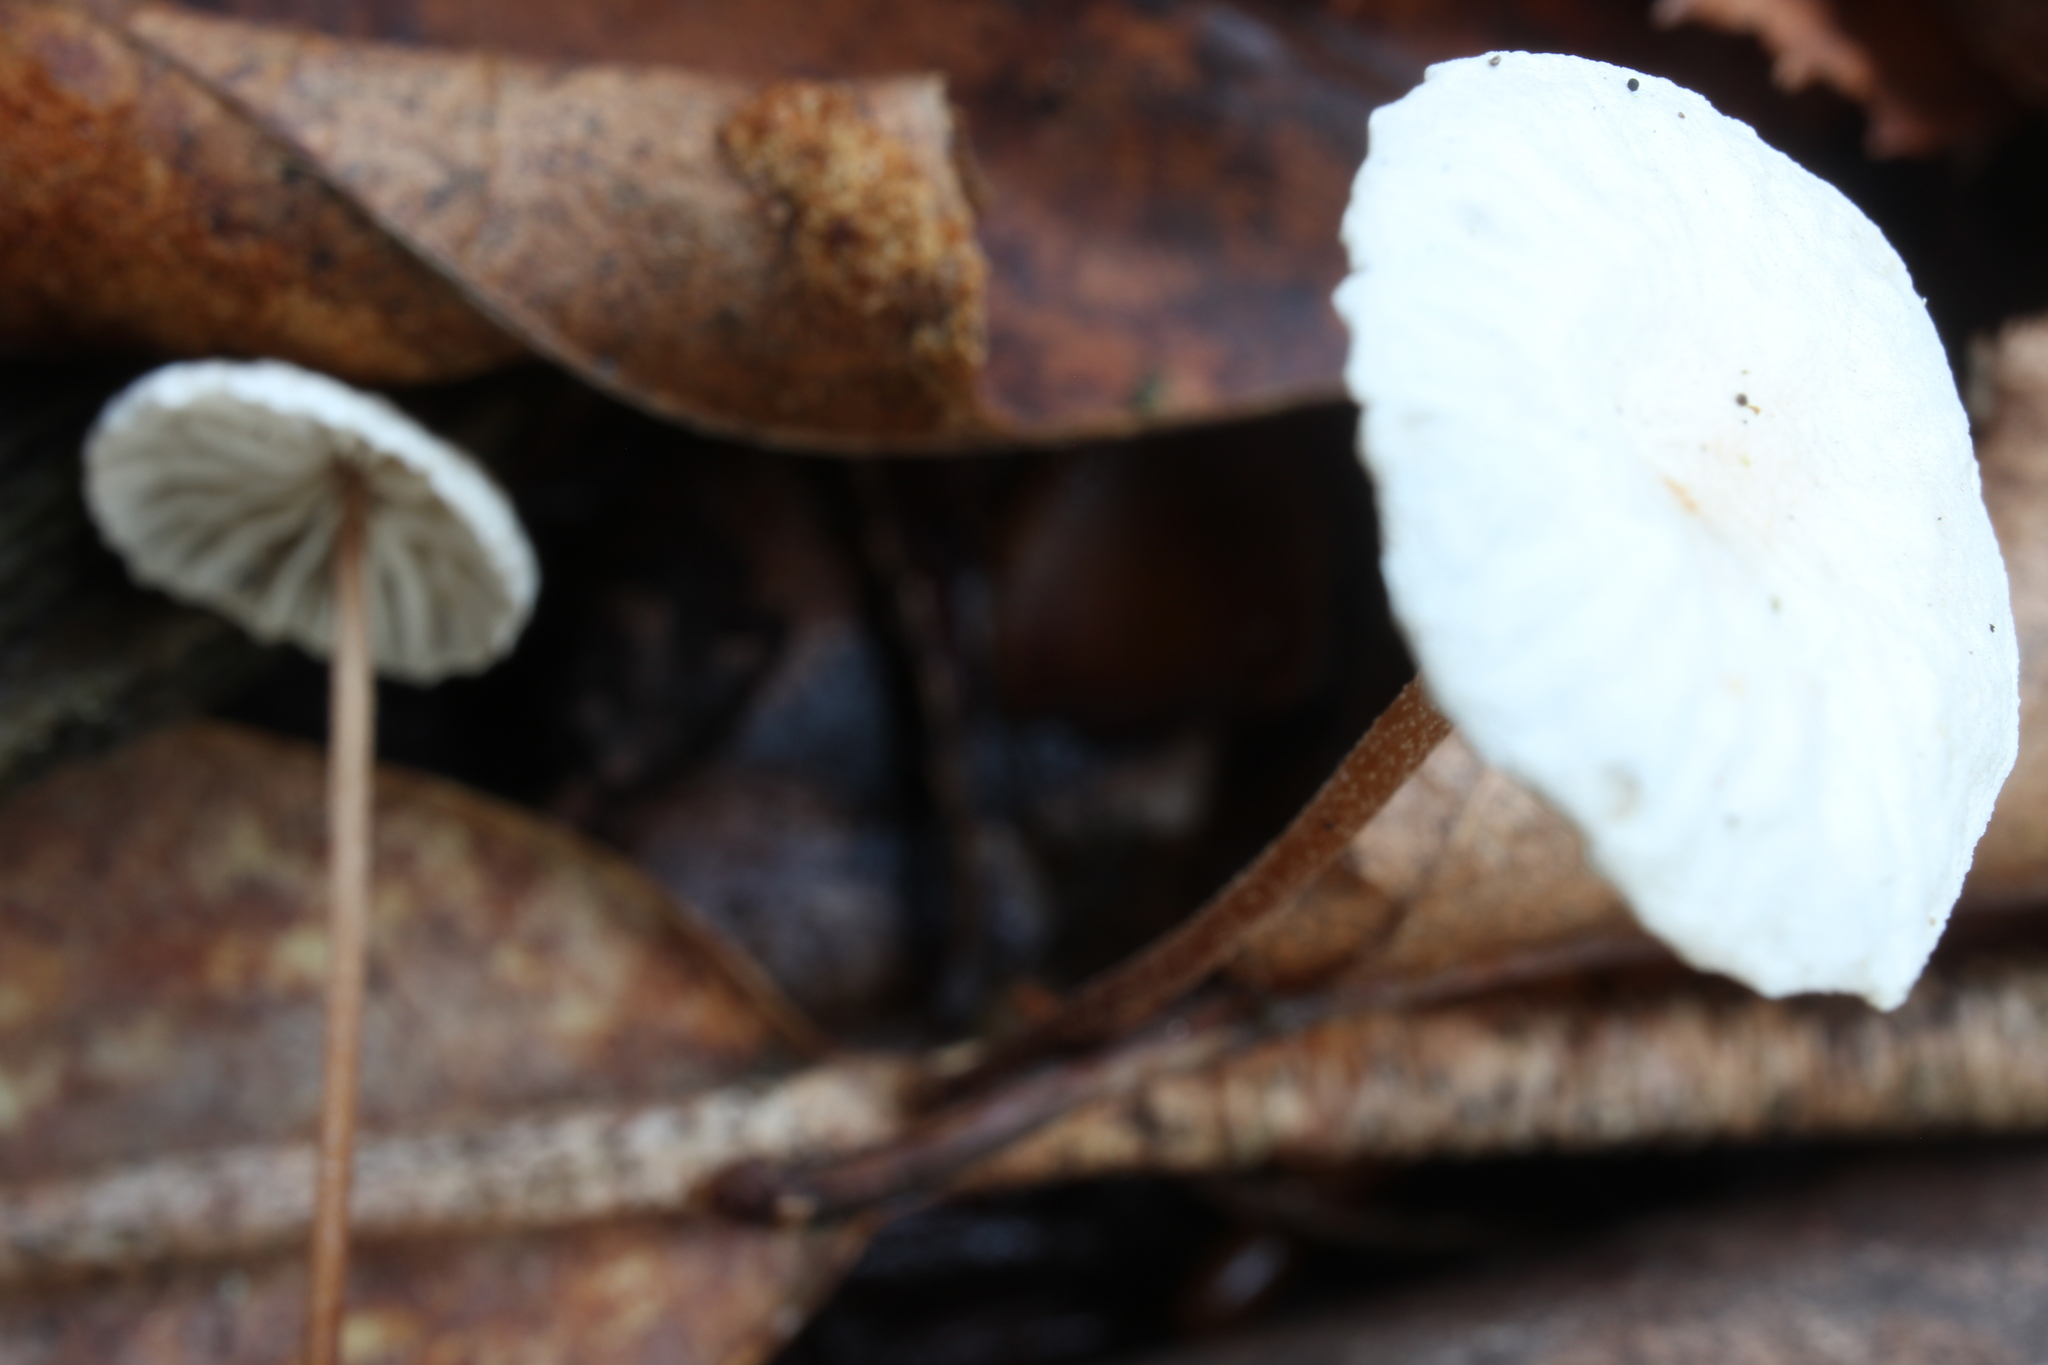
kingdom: Fungi
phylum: Basidiomycota
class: Agaricomycetes
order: Agaricales
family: Omphalotaceae
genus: Mycetinis
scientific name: Mycetinis opacus
